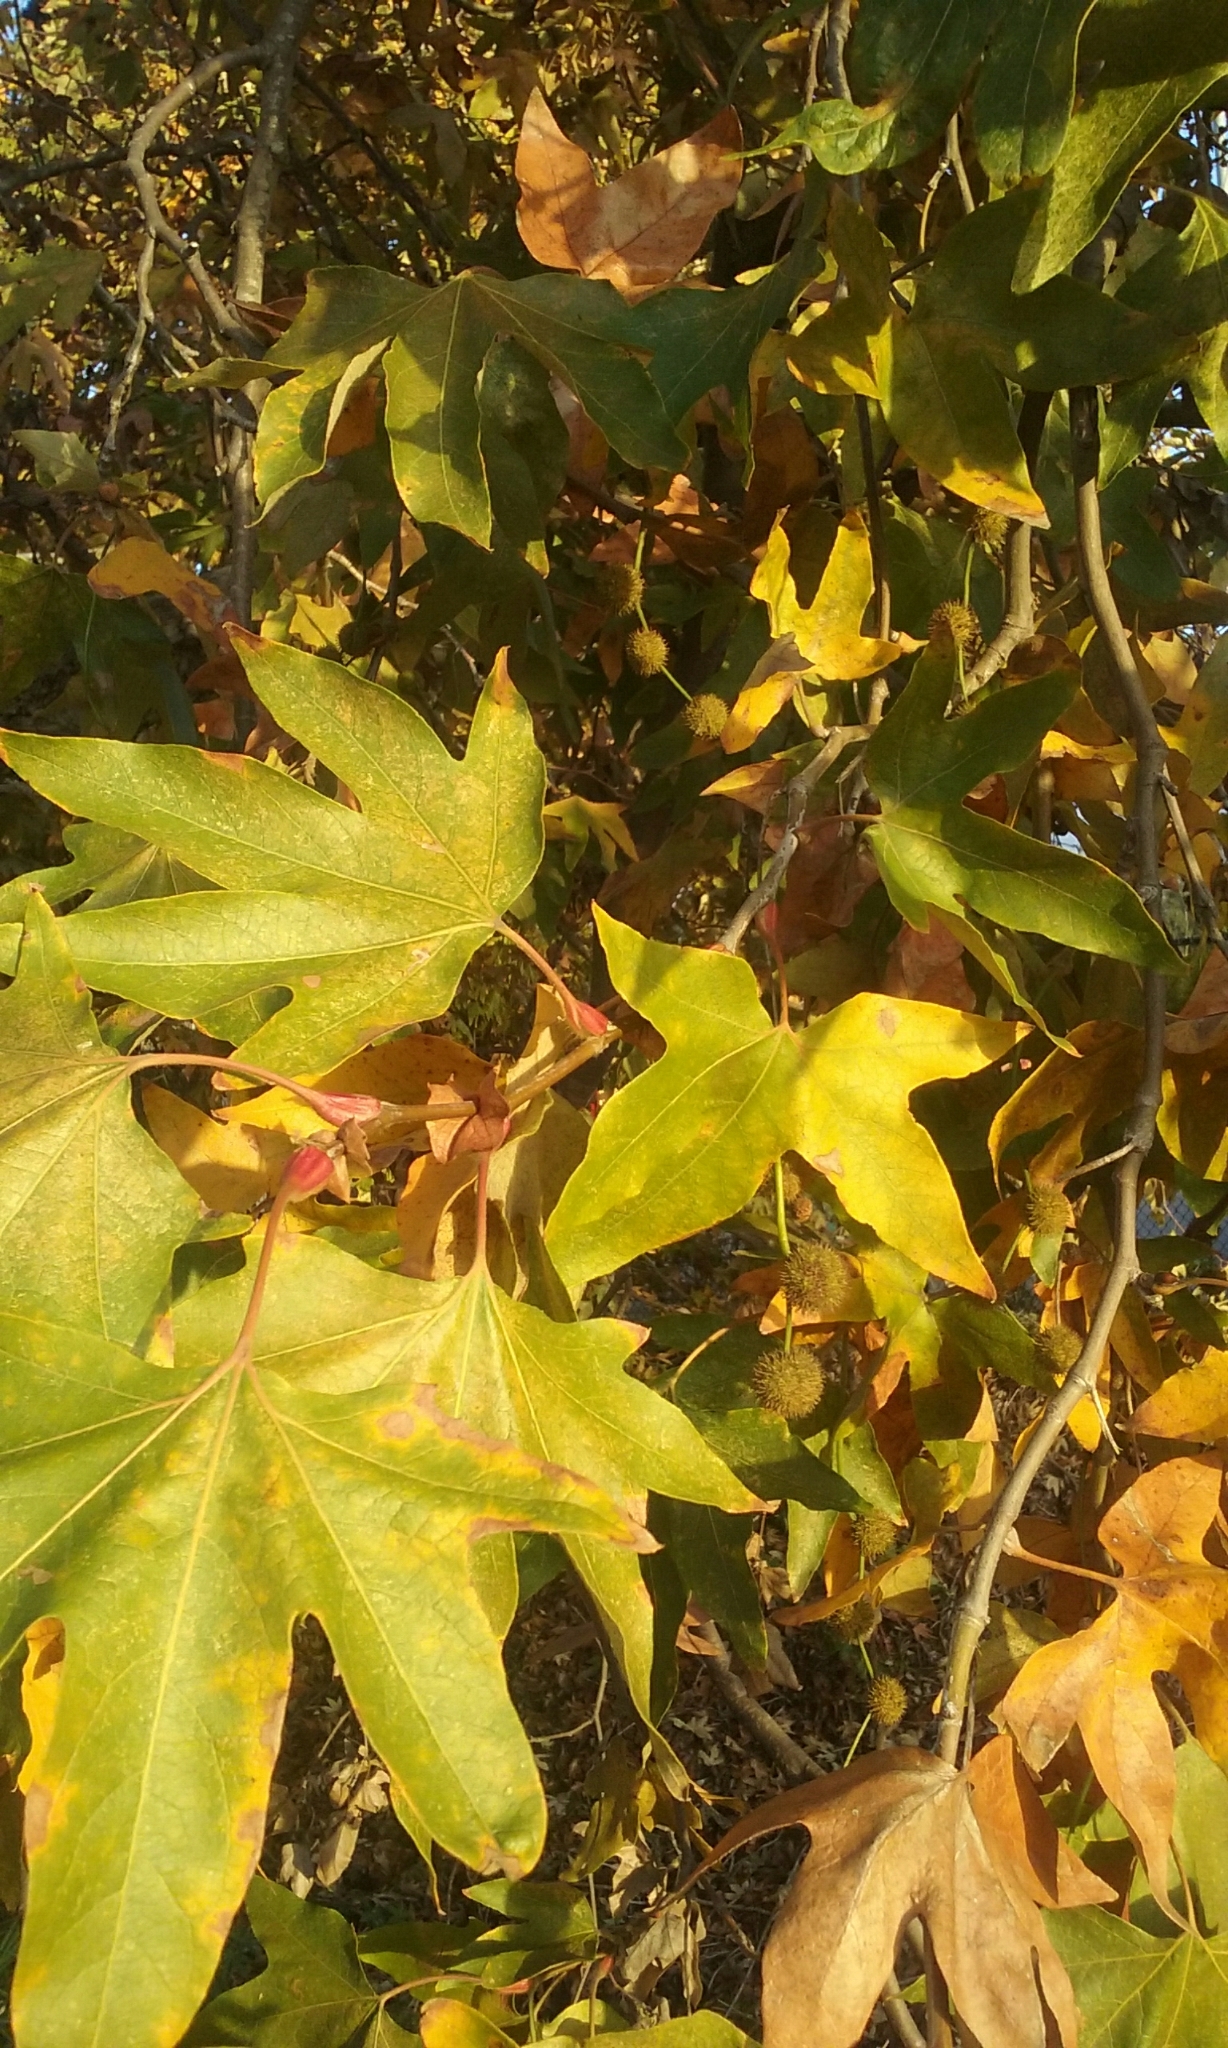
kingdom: Plantae
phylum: Tracheophyta
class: Magnoliopsida
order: Proteales
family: Platanaceae
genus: Platanus
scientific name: Platanus racemosa
